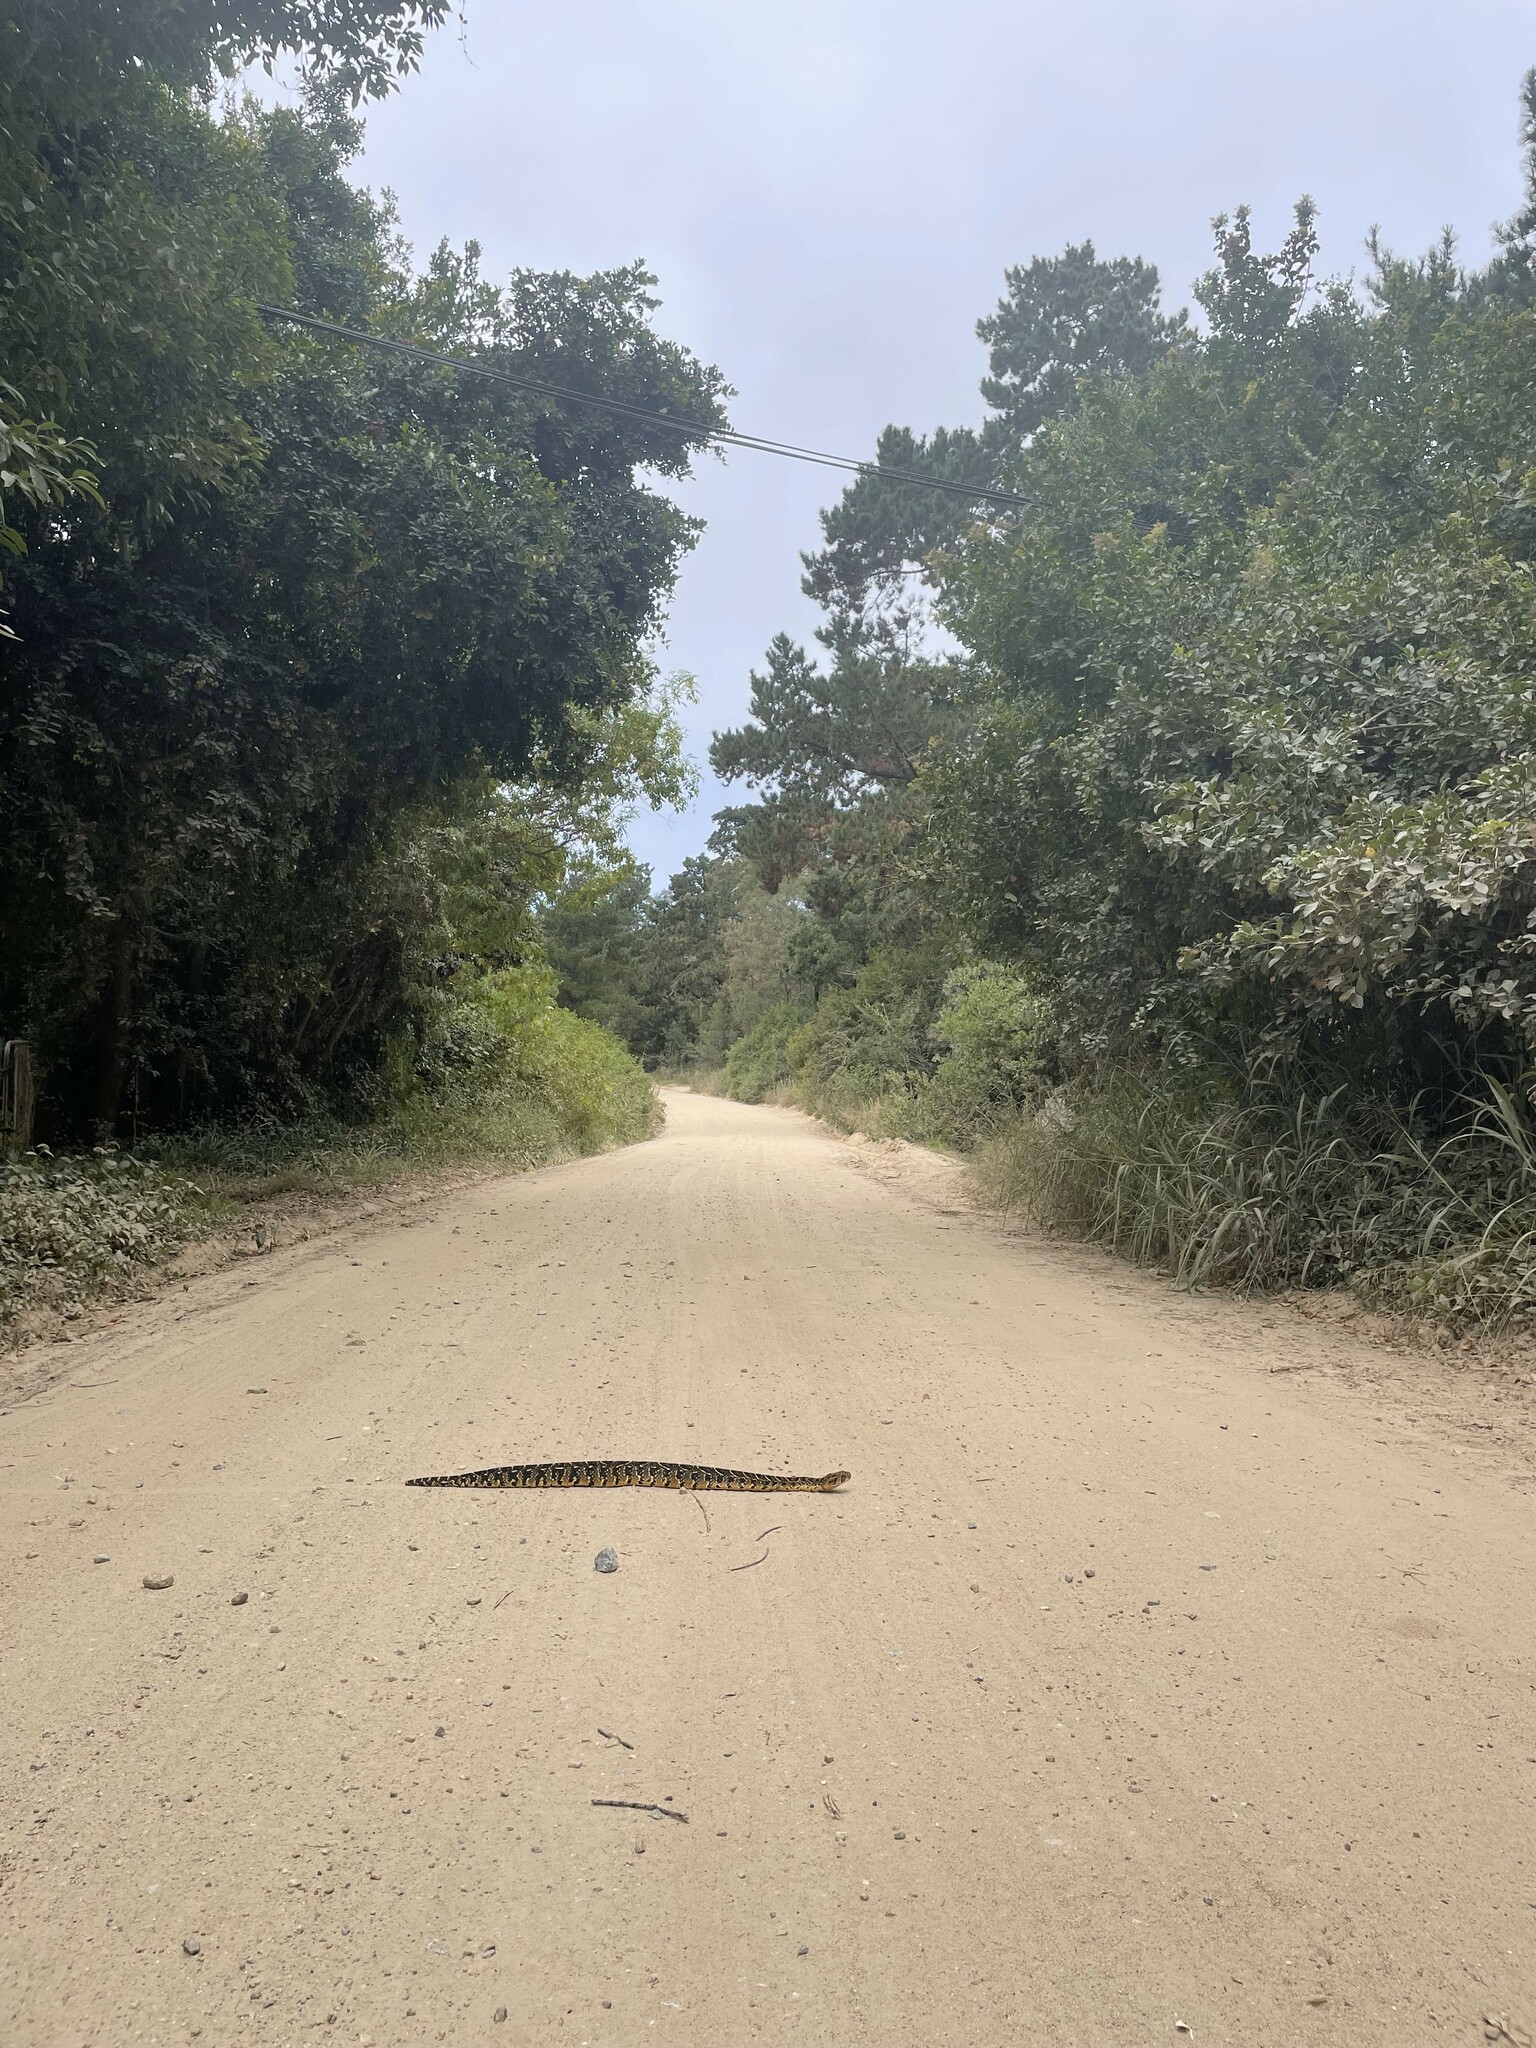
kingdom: Animalia
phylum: Chordata
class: Squamata
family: Viperidae
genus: Bitis
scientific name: Bitis arietans
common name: Puff adder
